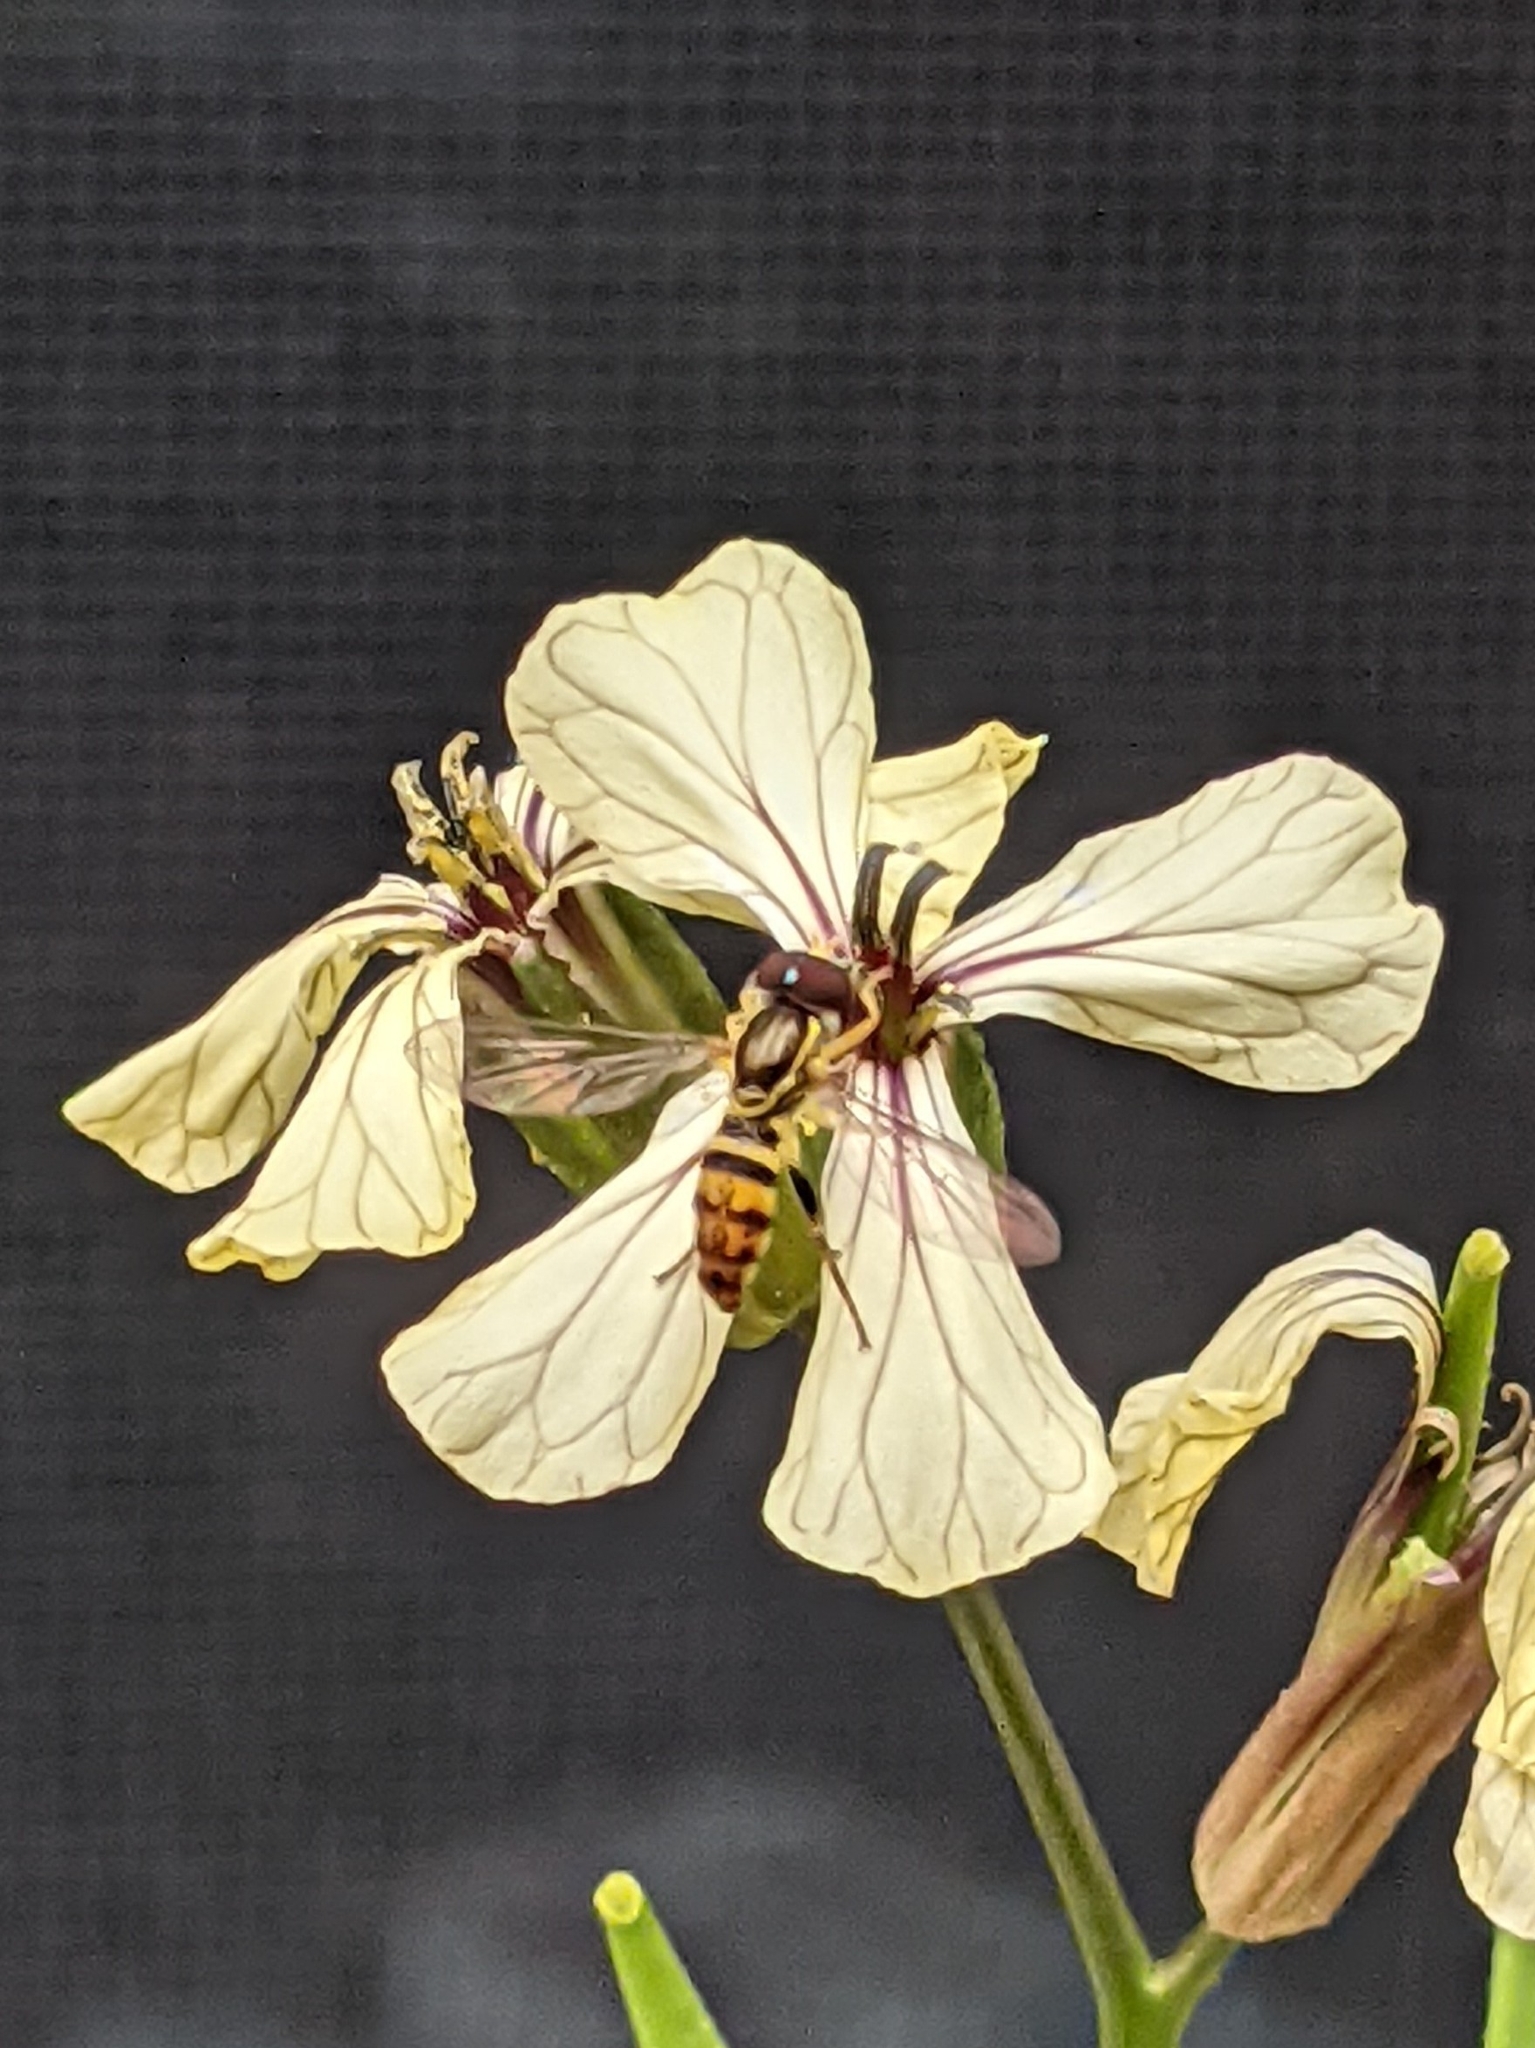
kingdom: Animalia
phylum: Arthropoda
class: Insecta
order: Diptera
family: Syrphidae
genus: Toxomerus
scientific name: Toxomerus geminatus
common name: Eastern calligrapher
